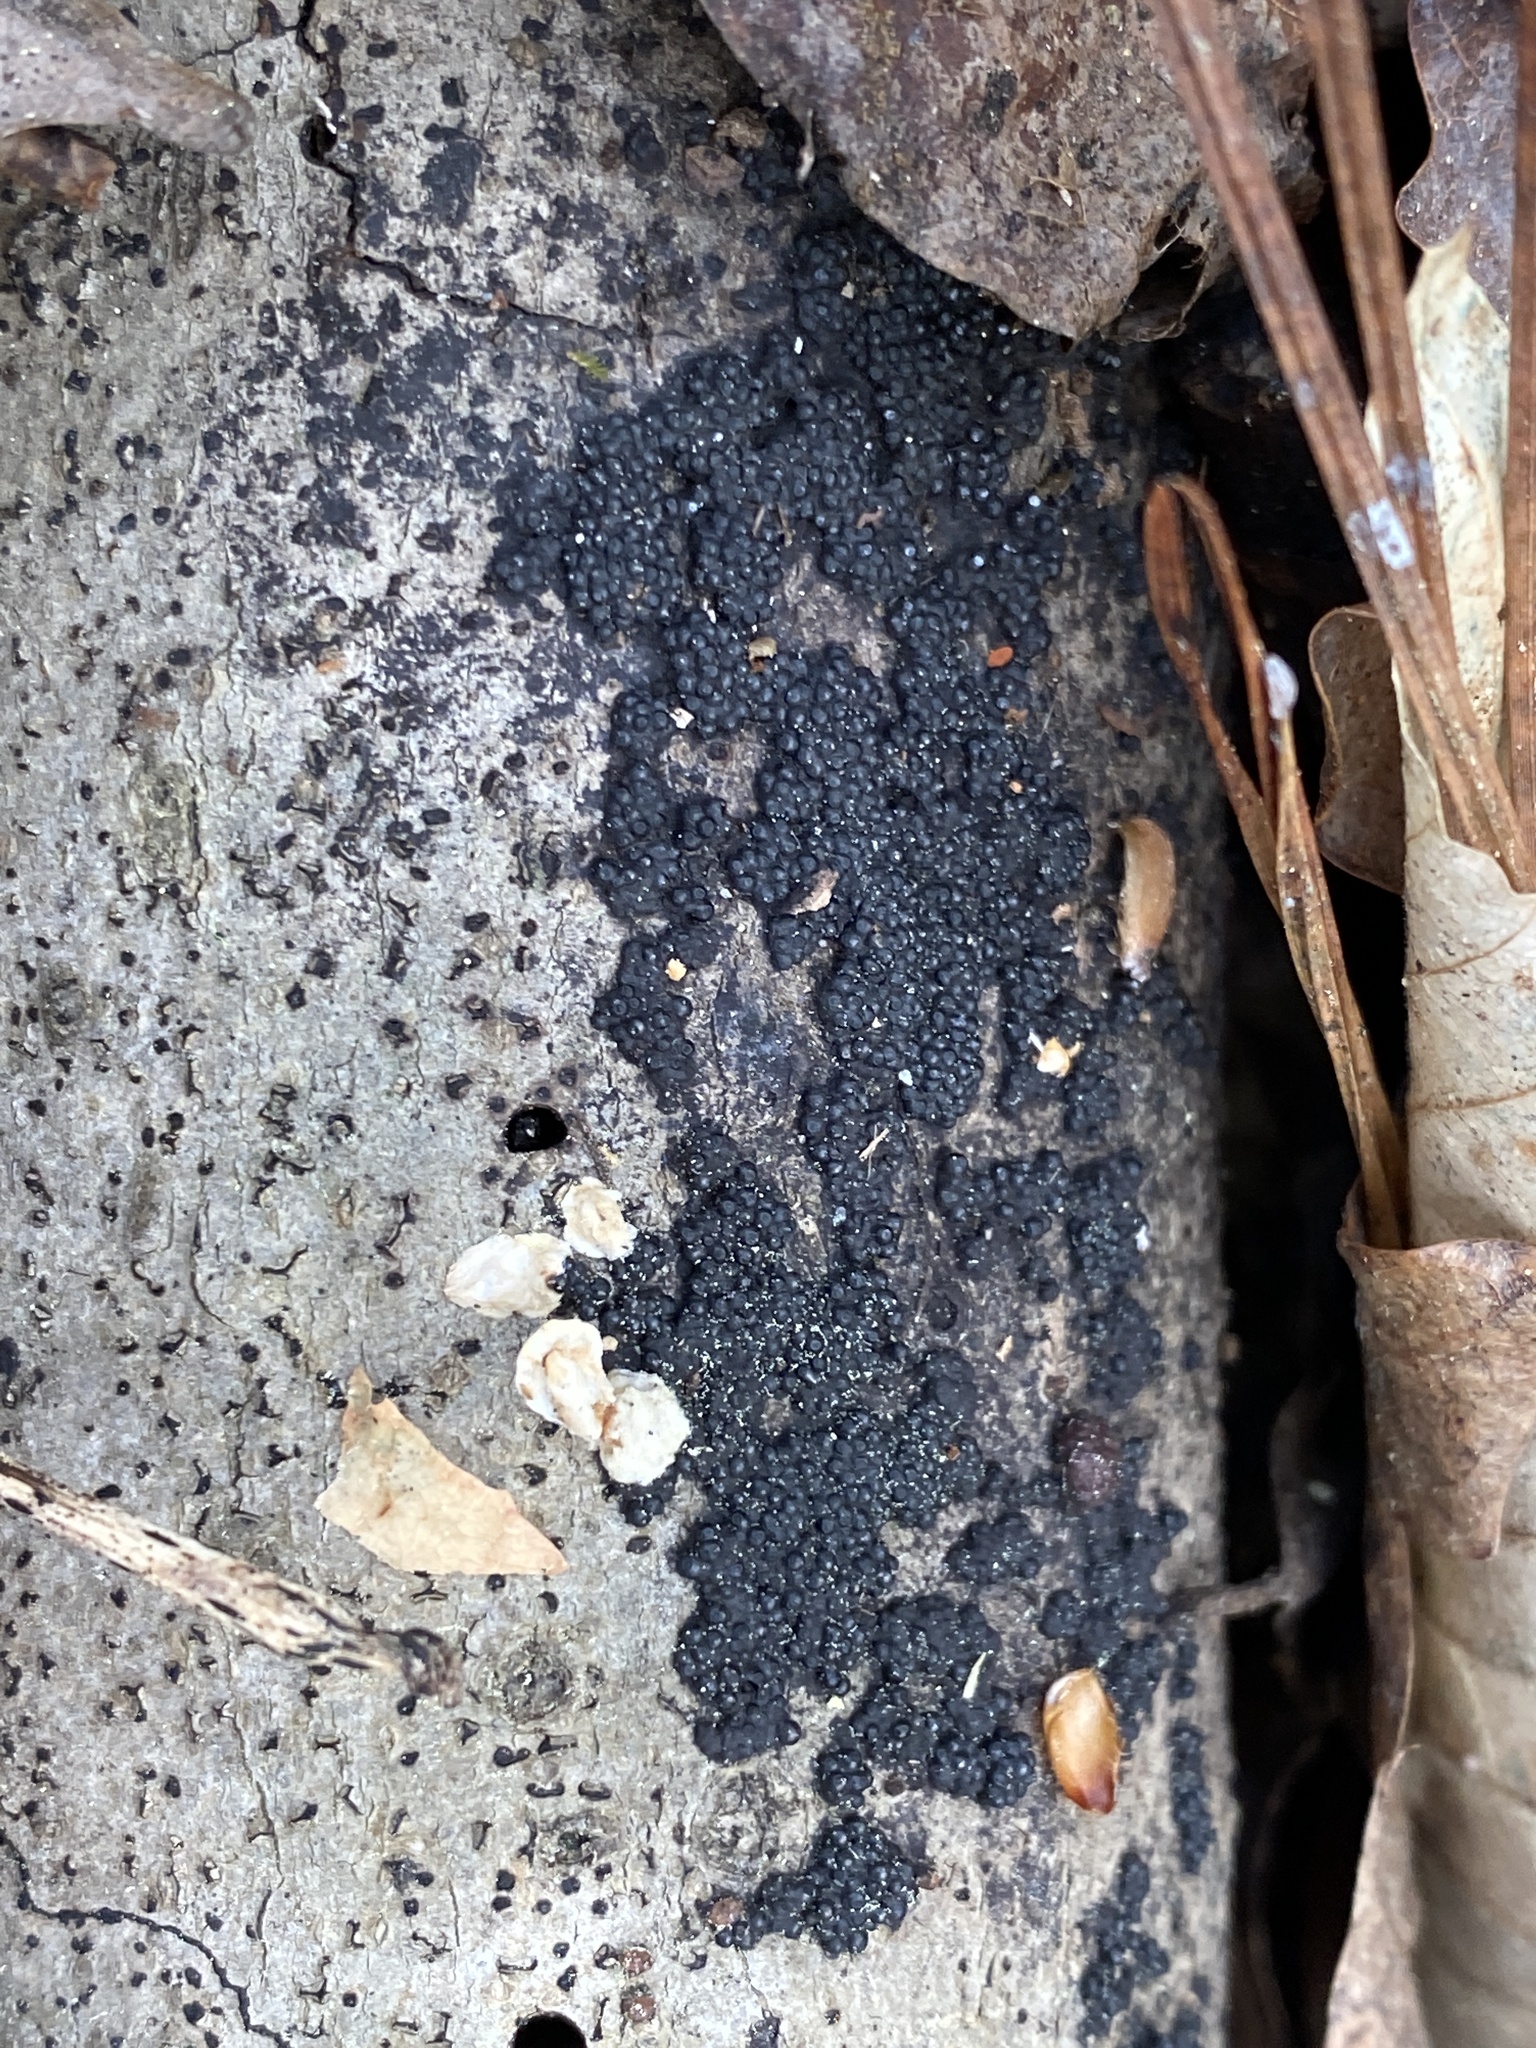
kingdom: Fungi
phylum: Ascomycota
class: Sordariomycetes
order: Xylariales
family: Hypoxylaceae
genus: Annulohypoxylon
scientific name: Annulohypoxylon thouarsianum
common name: Cramp balls
